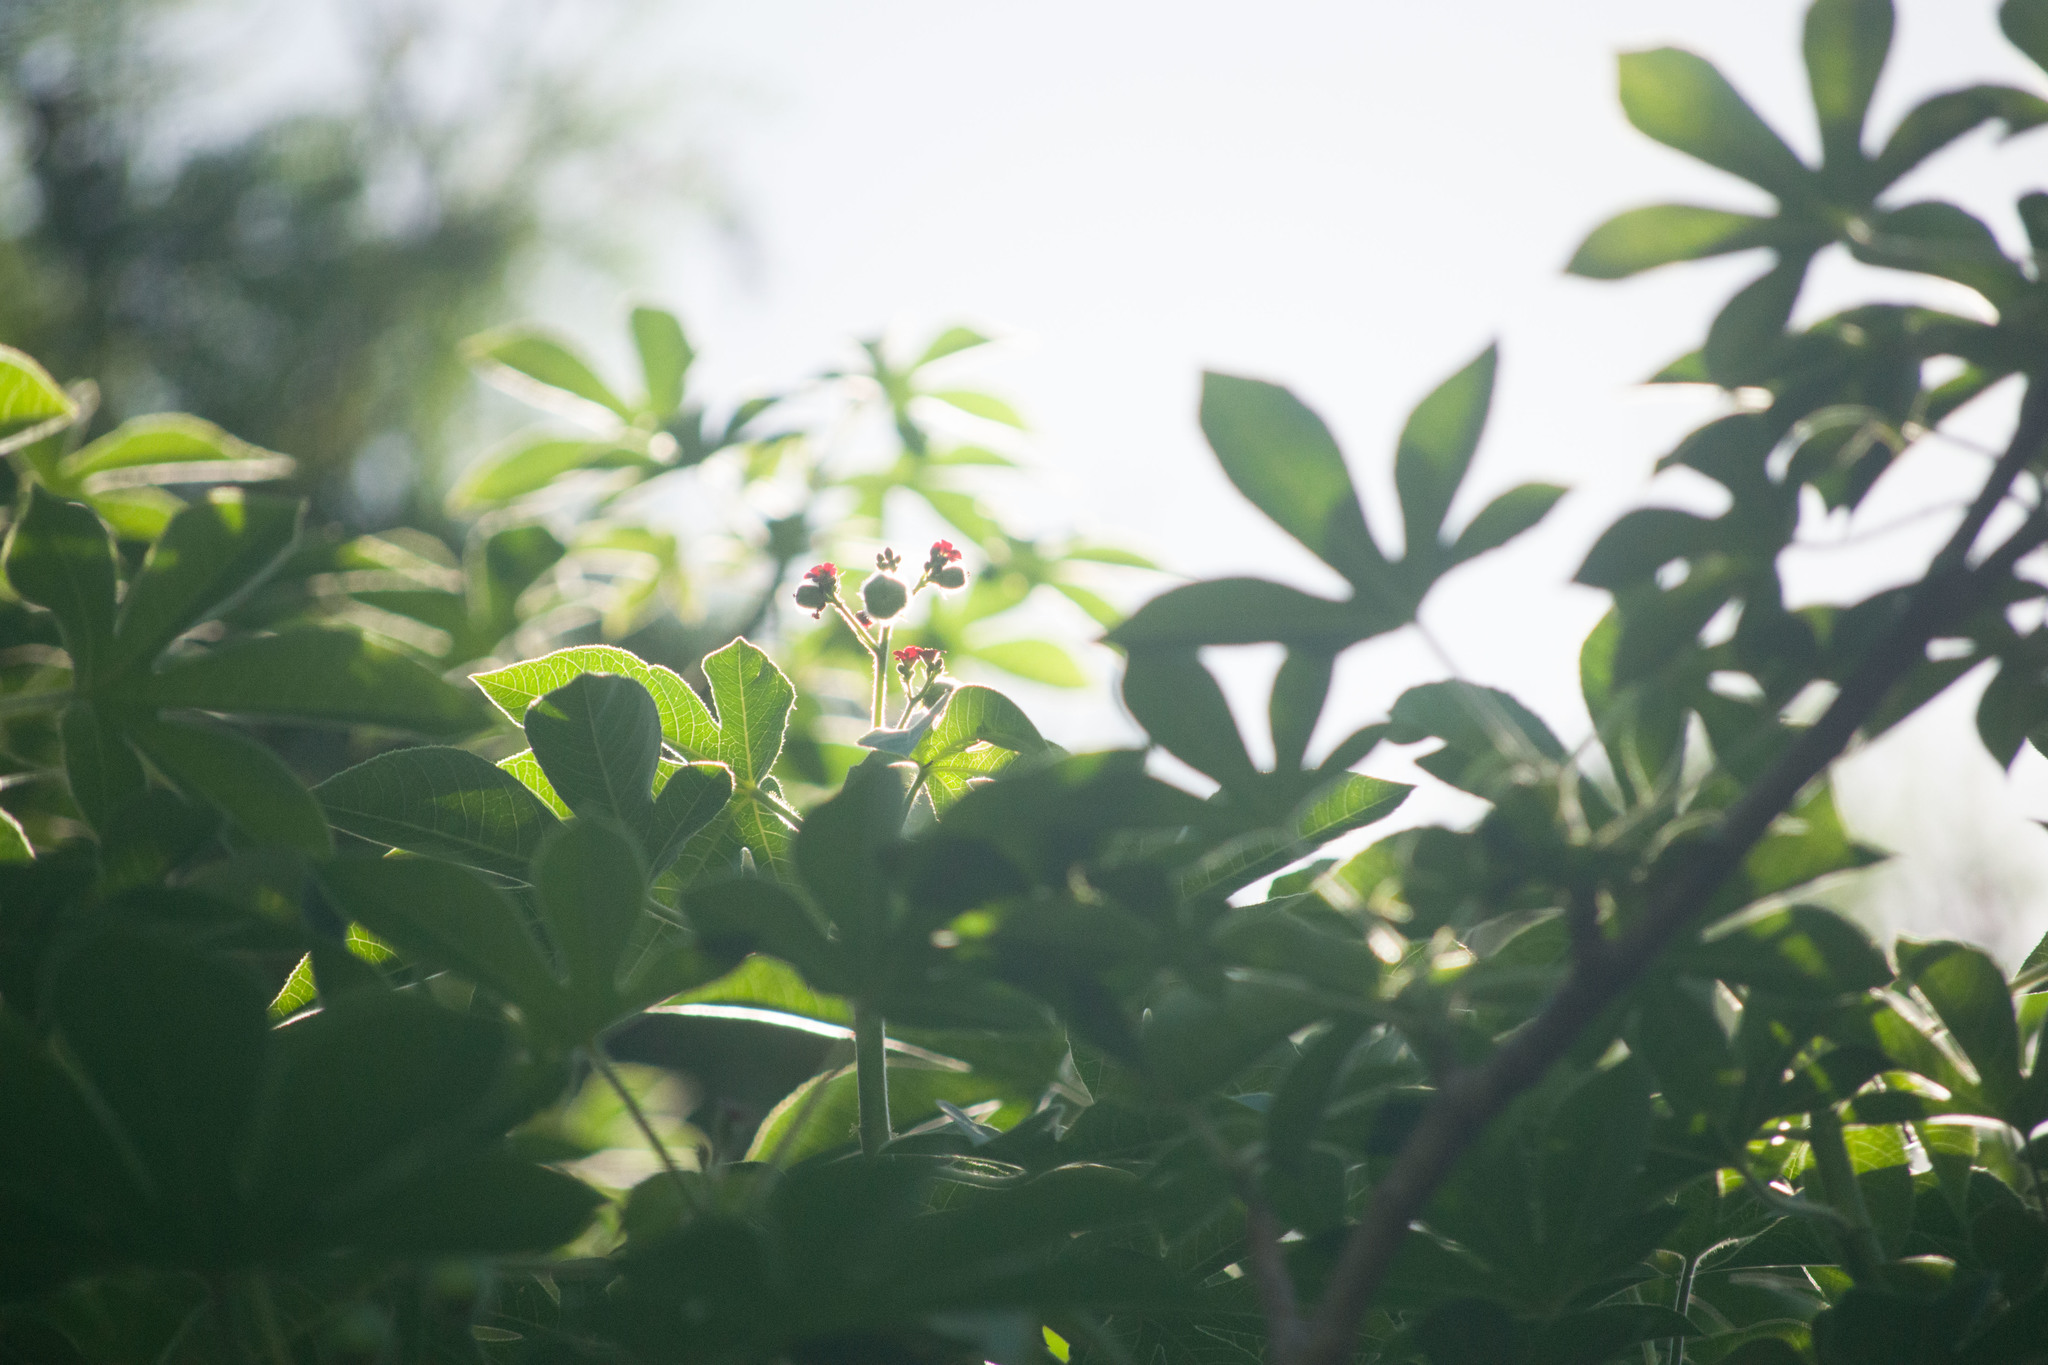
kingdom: Plantae
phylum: Tracheophyta
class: Magnoliopsida
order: Malpighiales
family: Euphorbiaceae
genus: Jatropha
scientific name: Jatropha gossypiifolia
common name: Bellyache bush
